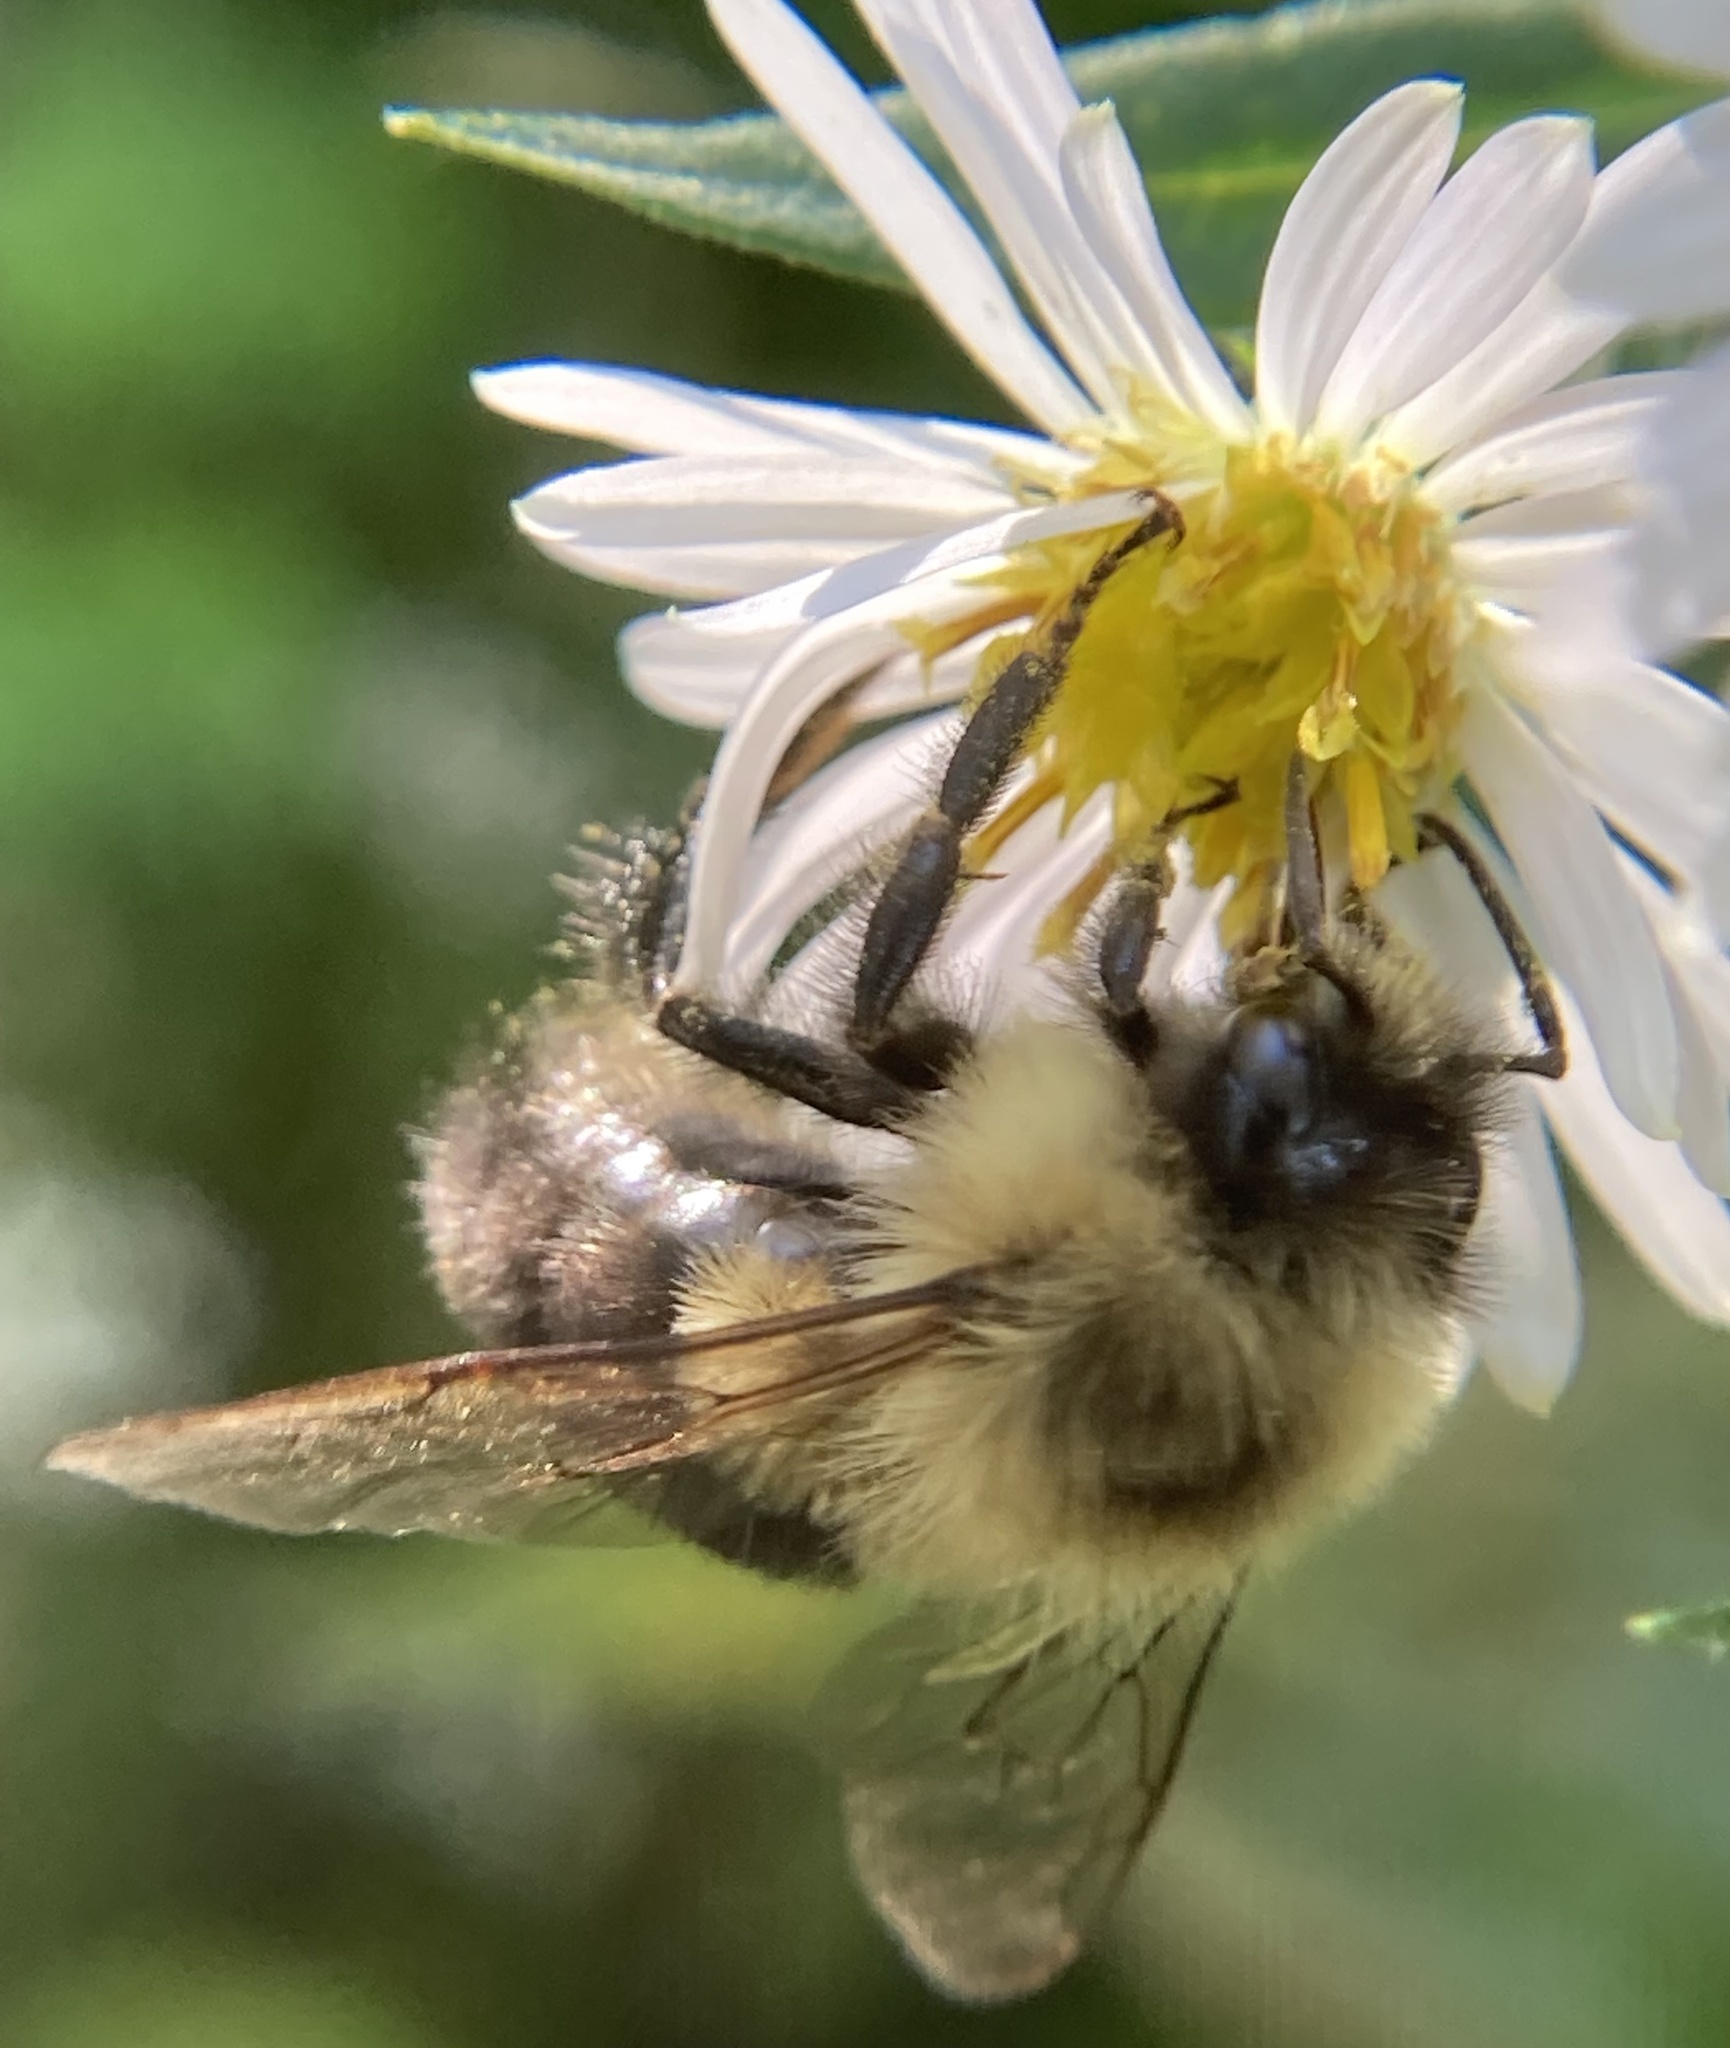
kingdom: Animalia
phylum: Arthropoda
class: Insecta
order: Hymenoptera
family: Apidae
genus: Bombus
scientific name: Bombus impatiens
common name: Common eastern bumble bee
